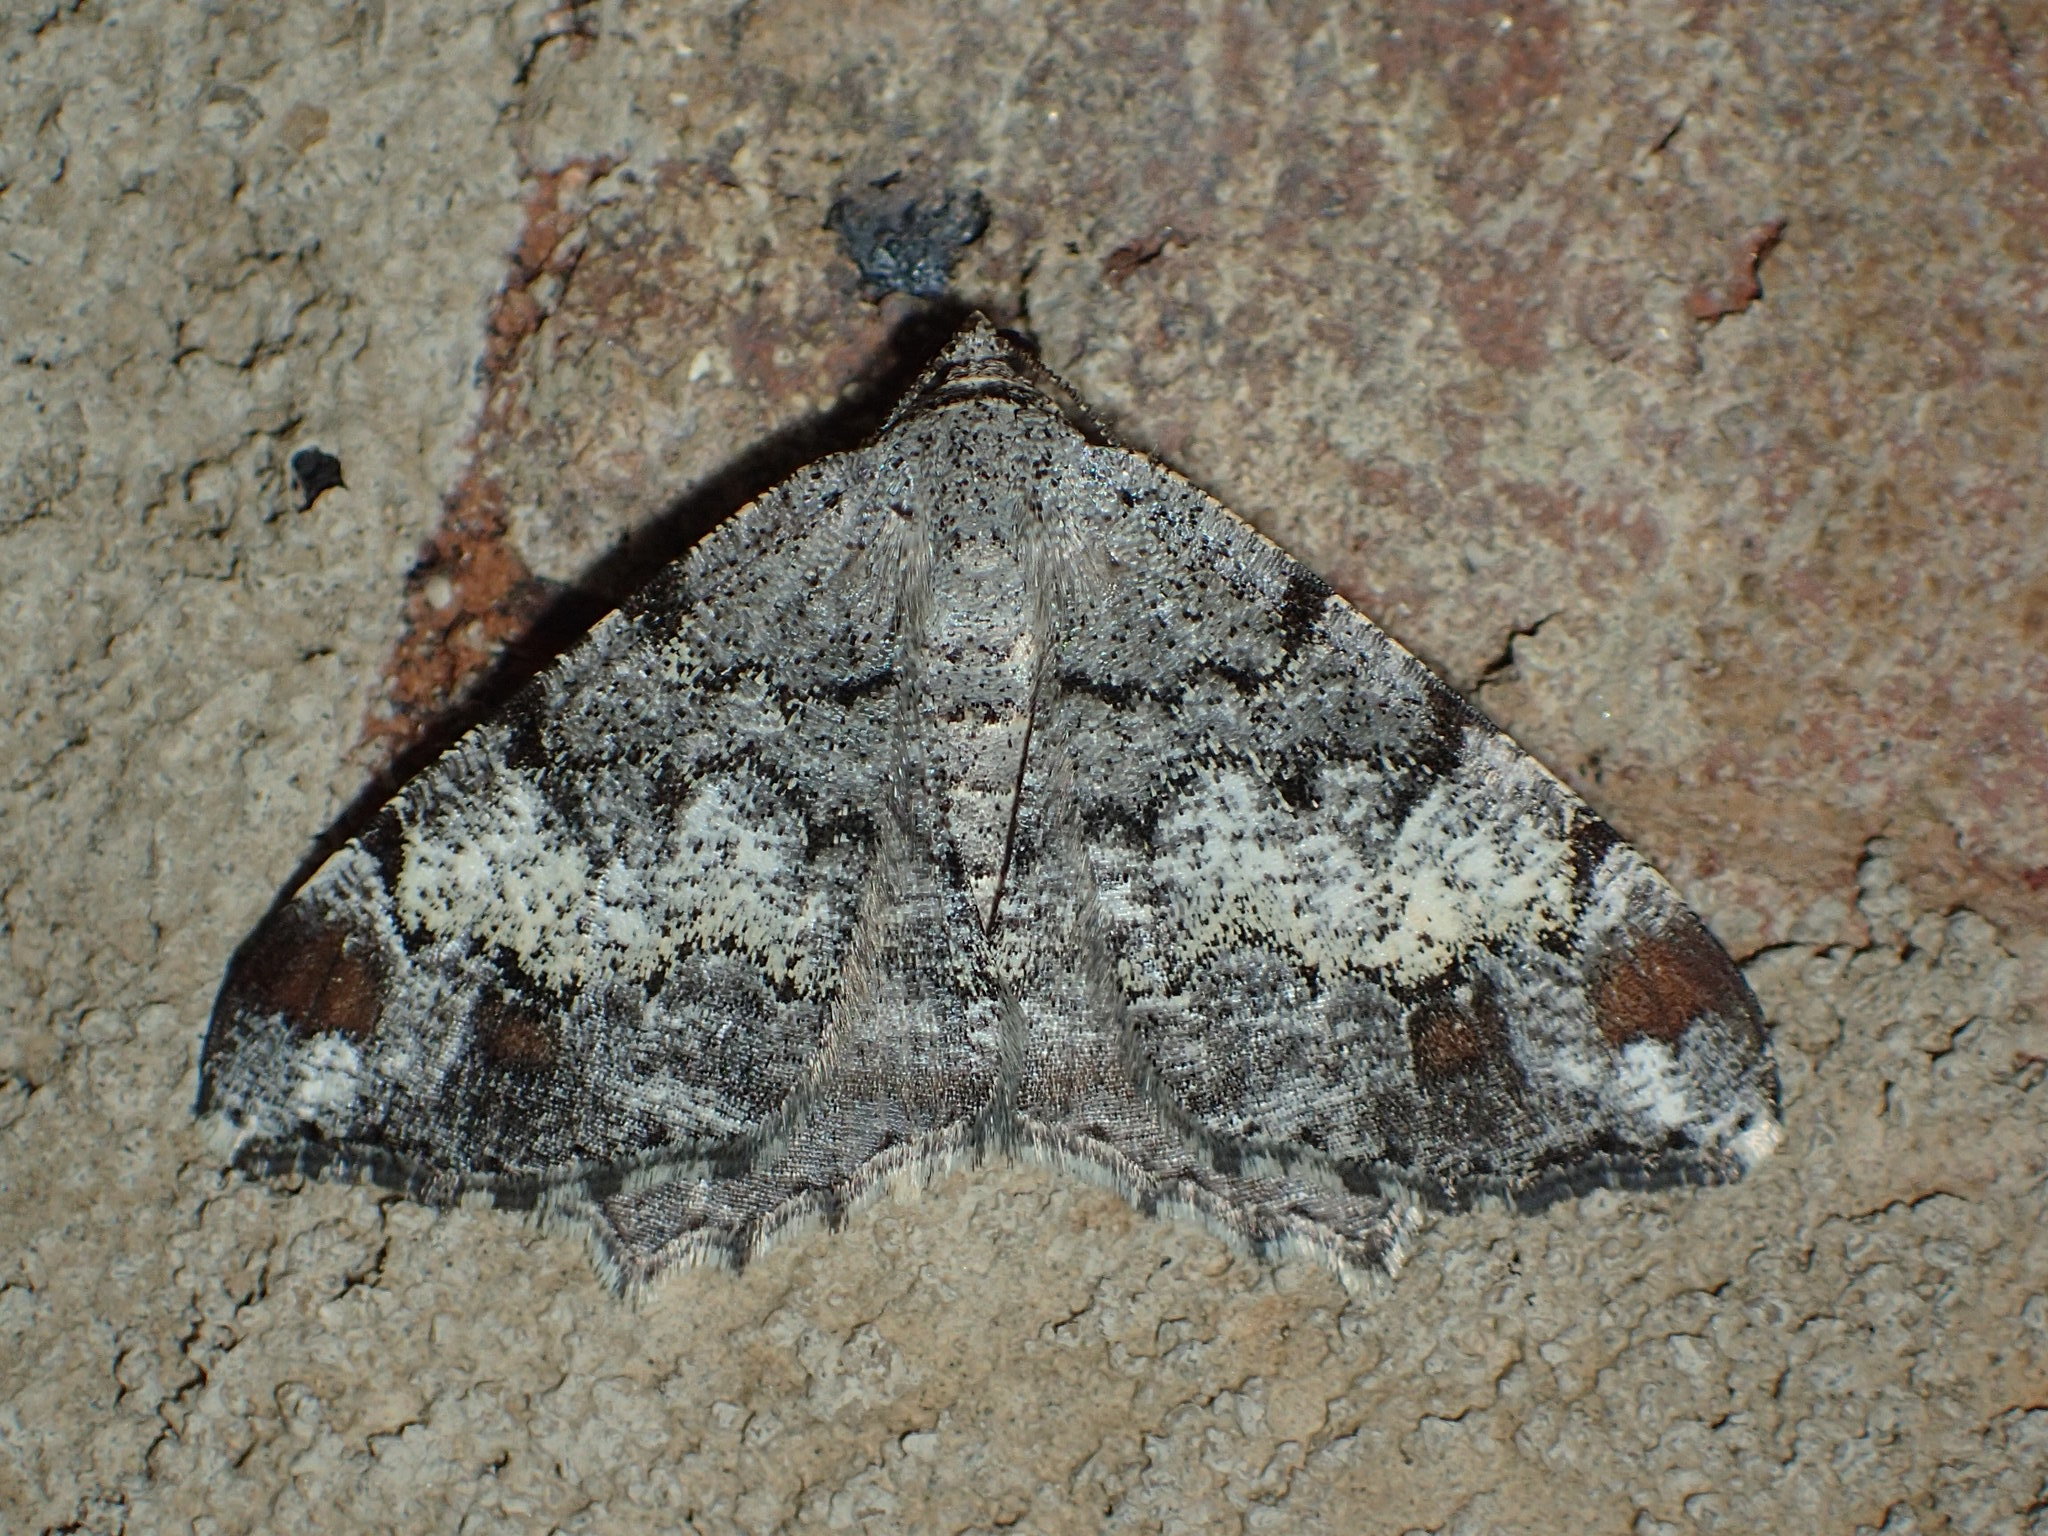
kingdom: Animalia
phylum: Arthropoda
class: Insecta
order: Lepidoptera
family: Geometridae
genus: Macaria
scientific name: Macaria granitata
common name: Granite moth
